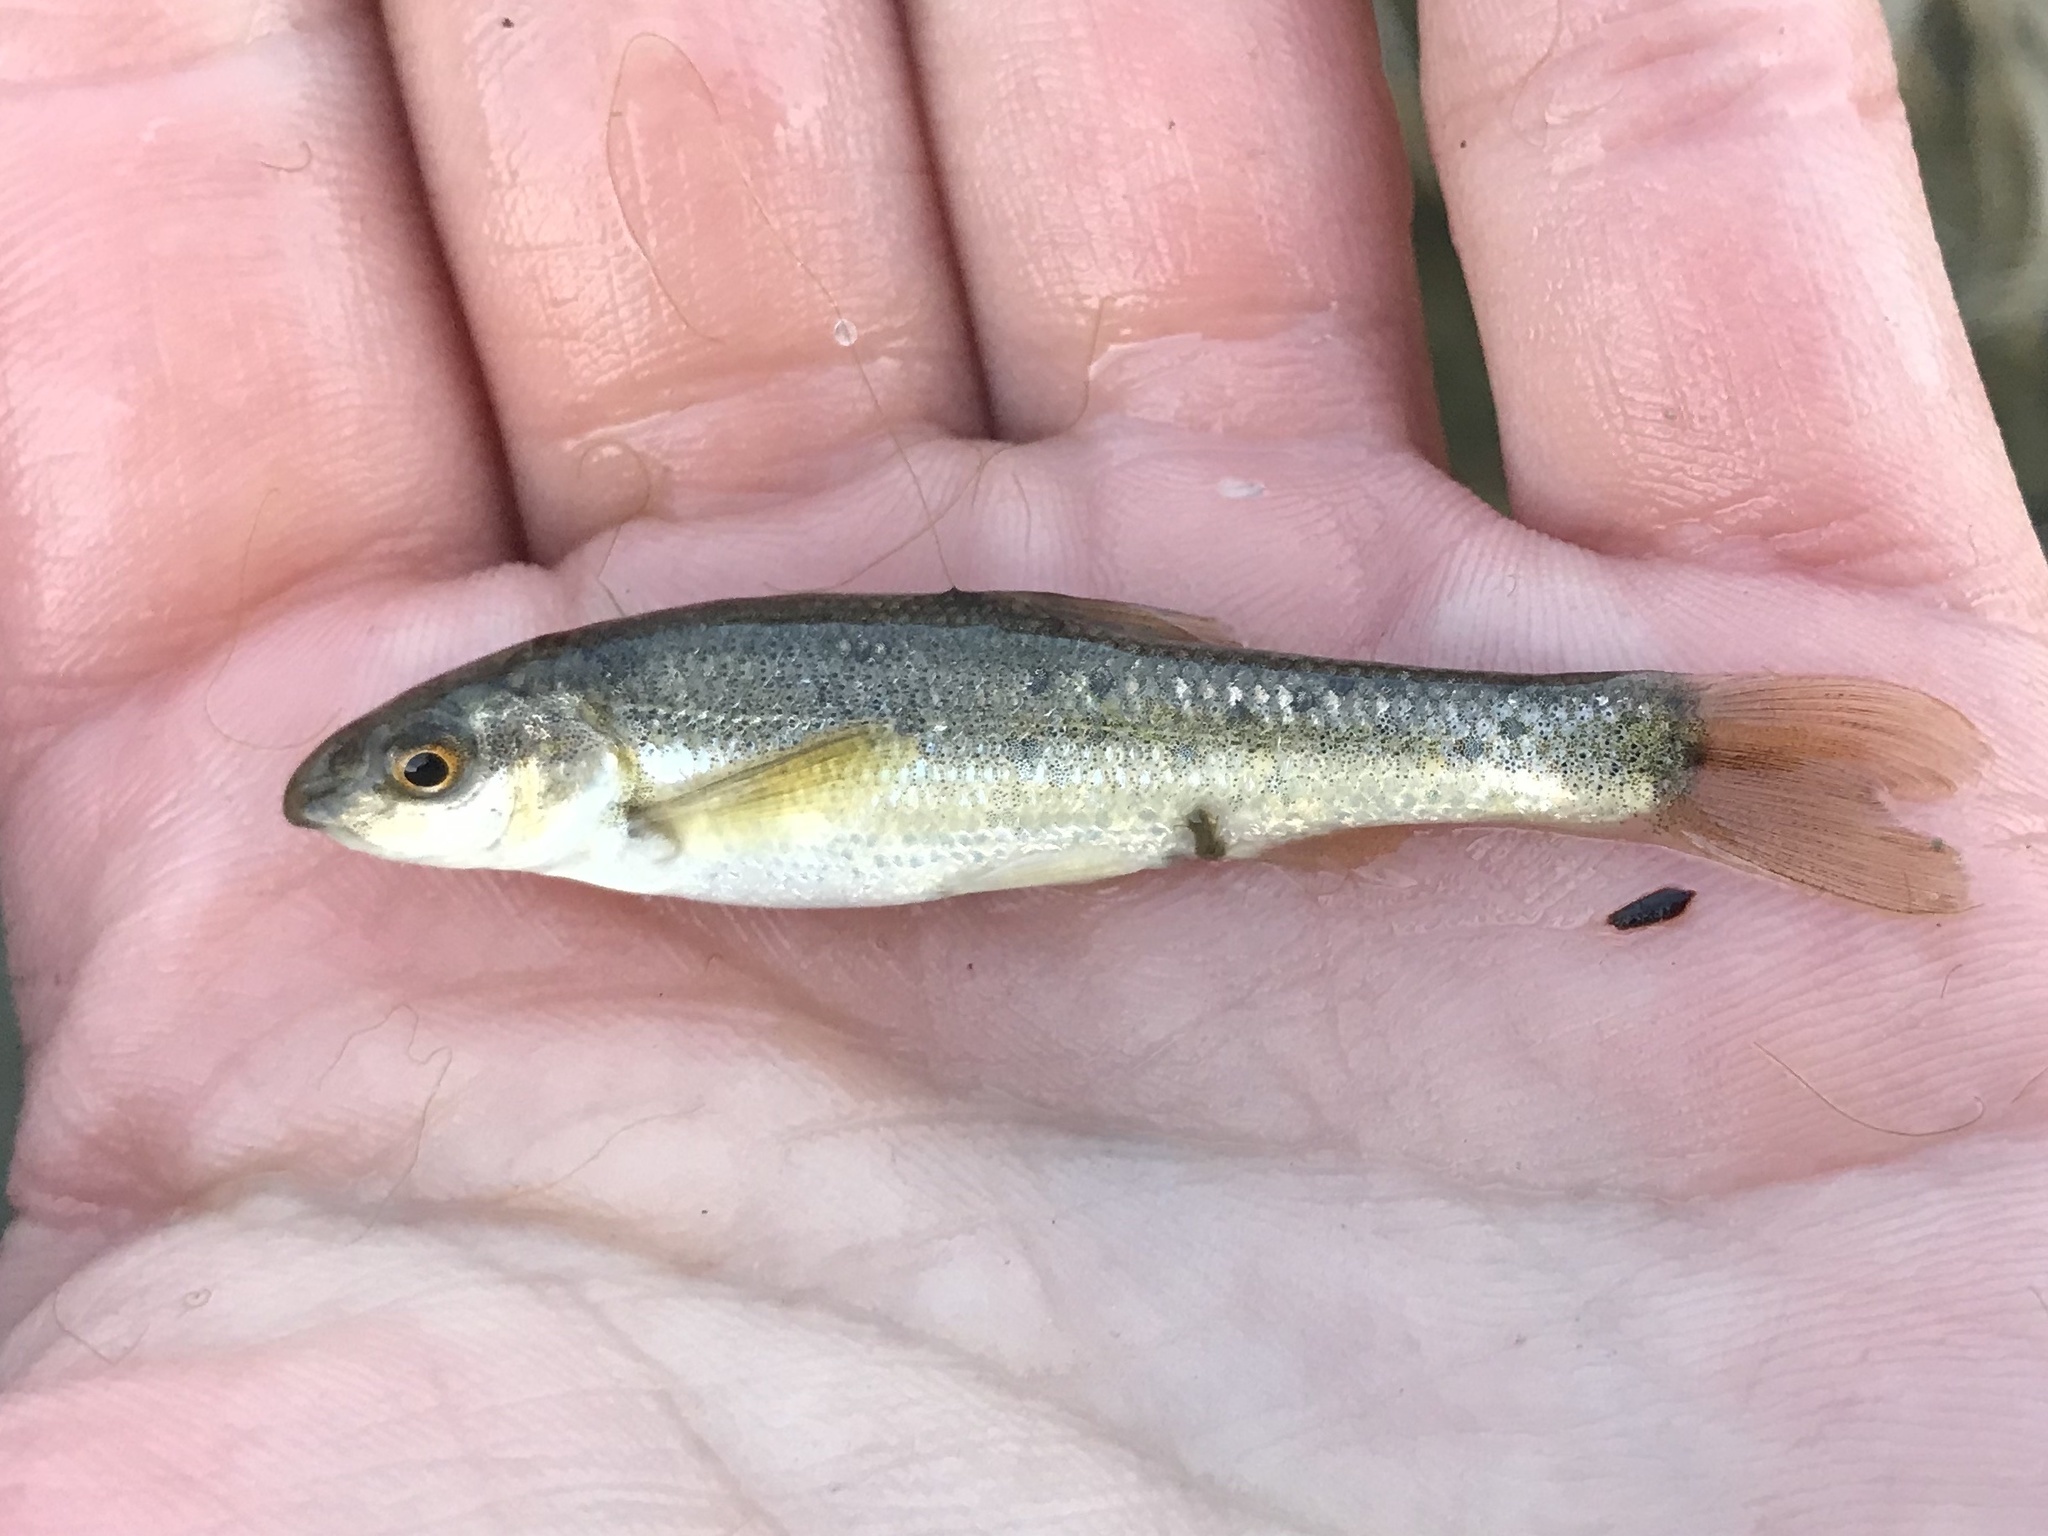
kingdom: Animalia
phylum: Chordata
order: Cypriniformes
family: Cyprinidae
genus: Campostoma
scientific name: Campostoma anomalum
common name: Central stoneroller
